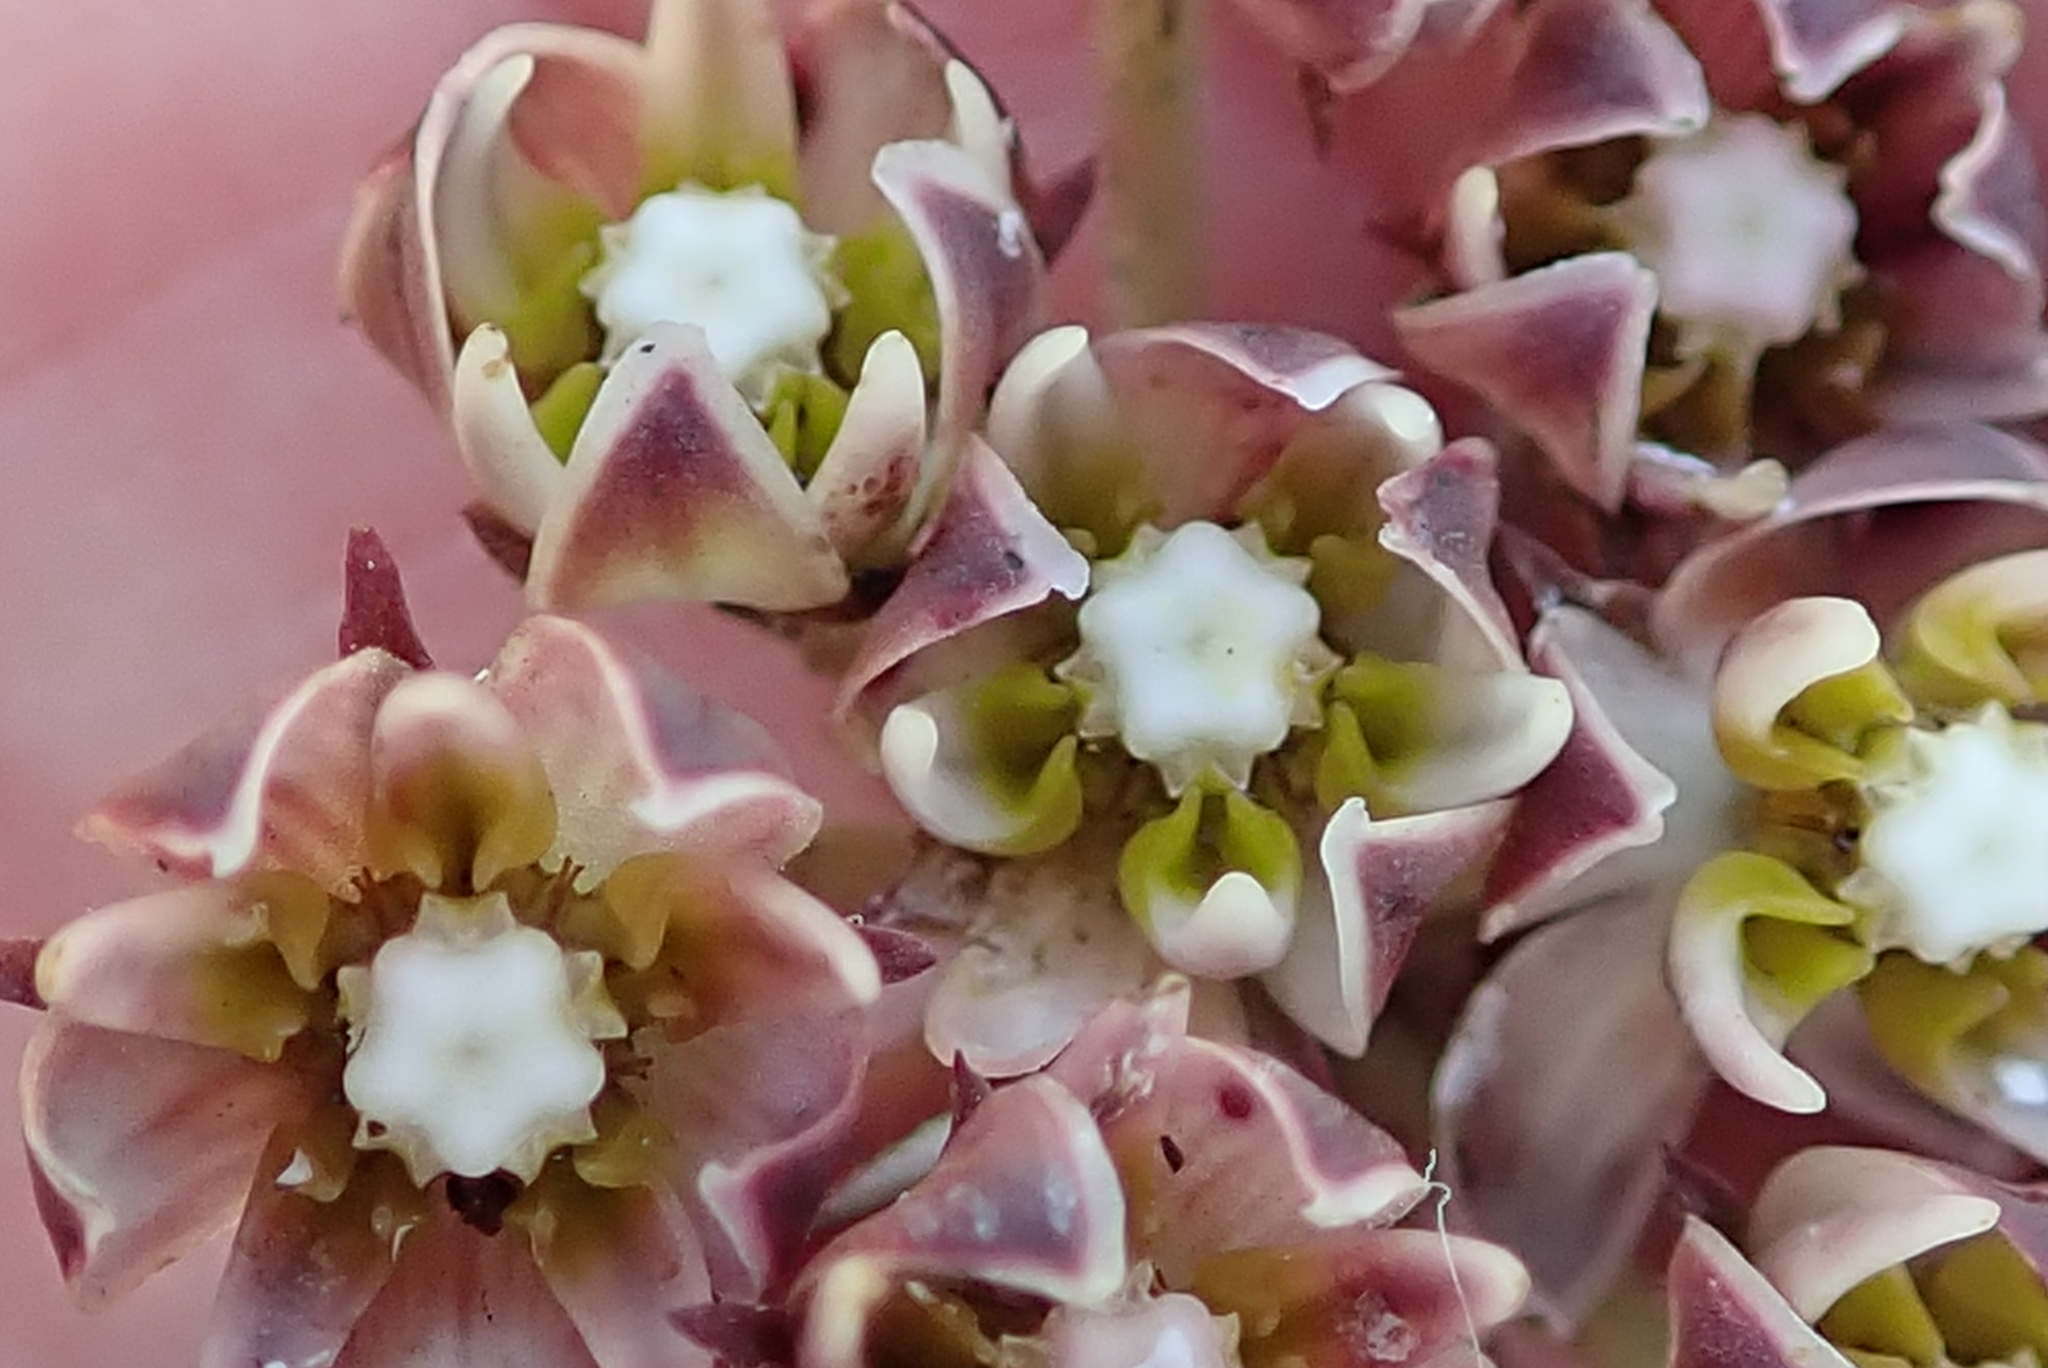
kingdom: Plantae
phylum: Tracheophyta
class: Magnoliopsida
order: Gentianales
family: Apocynaceae
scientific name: Apocynaceae
